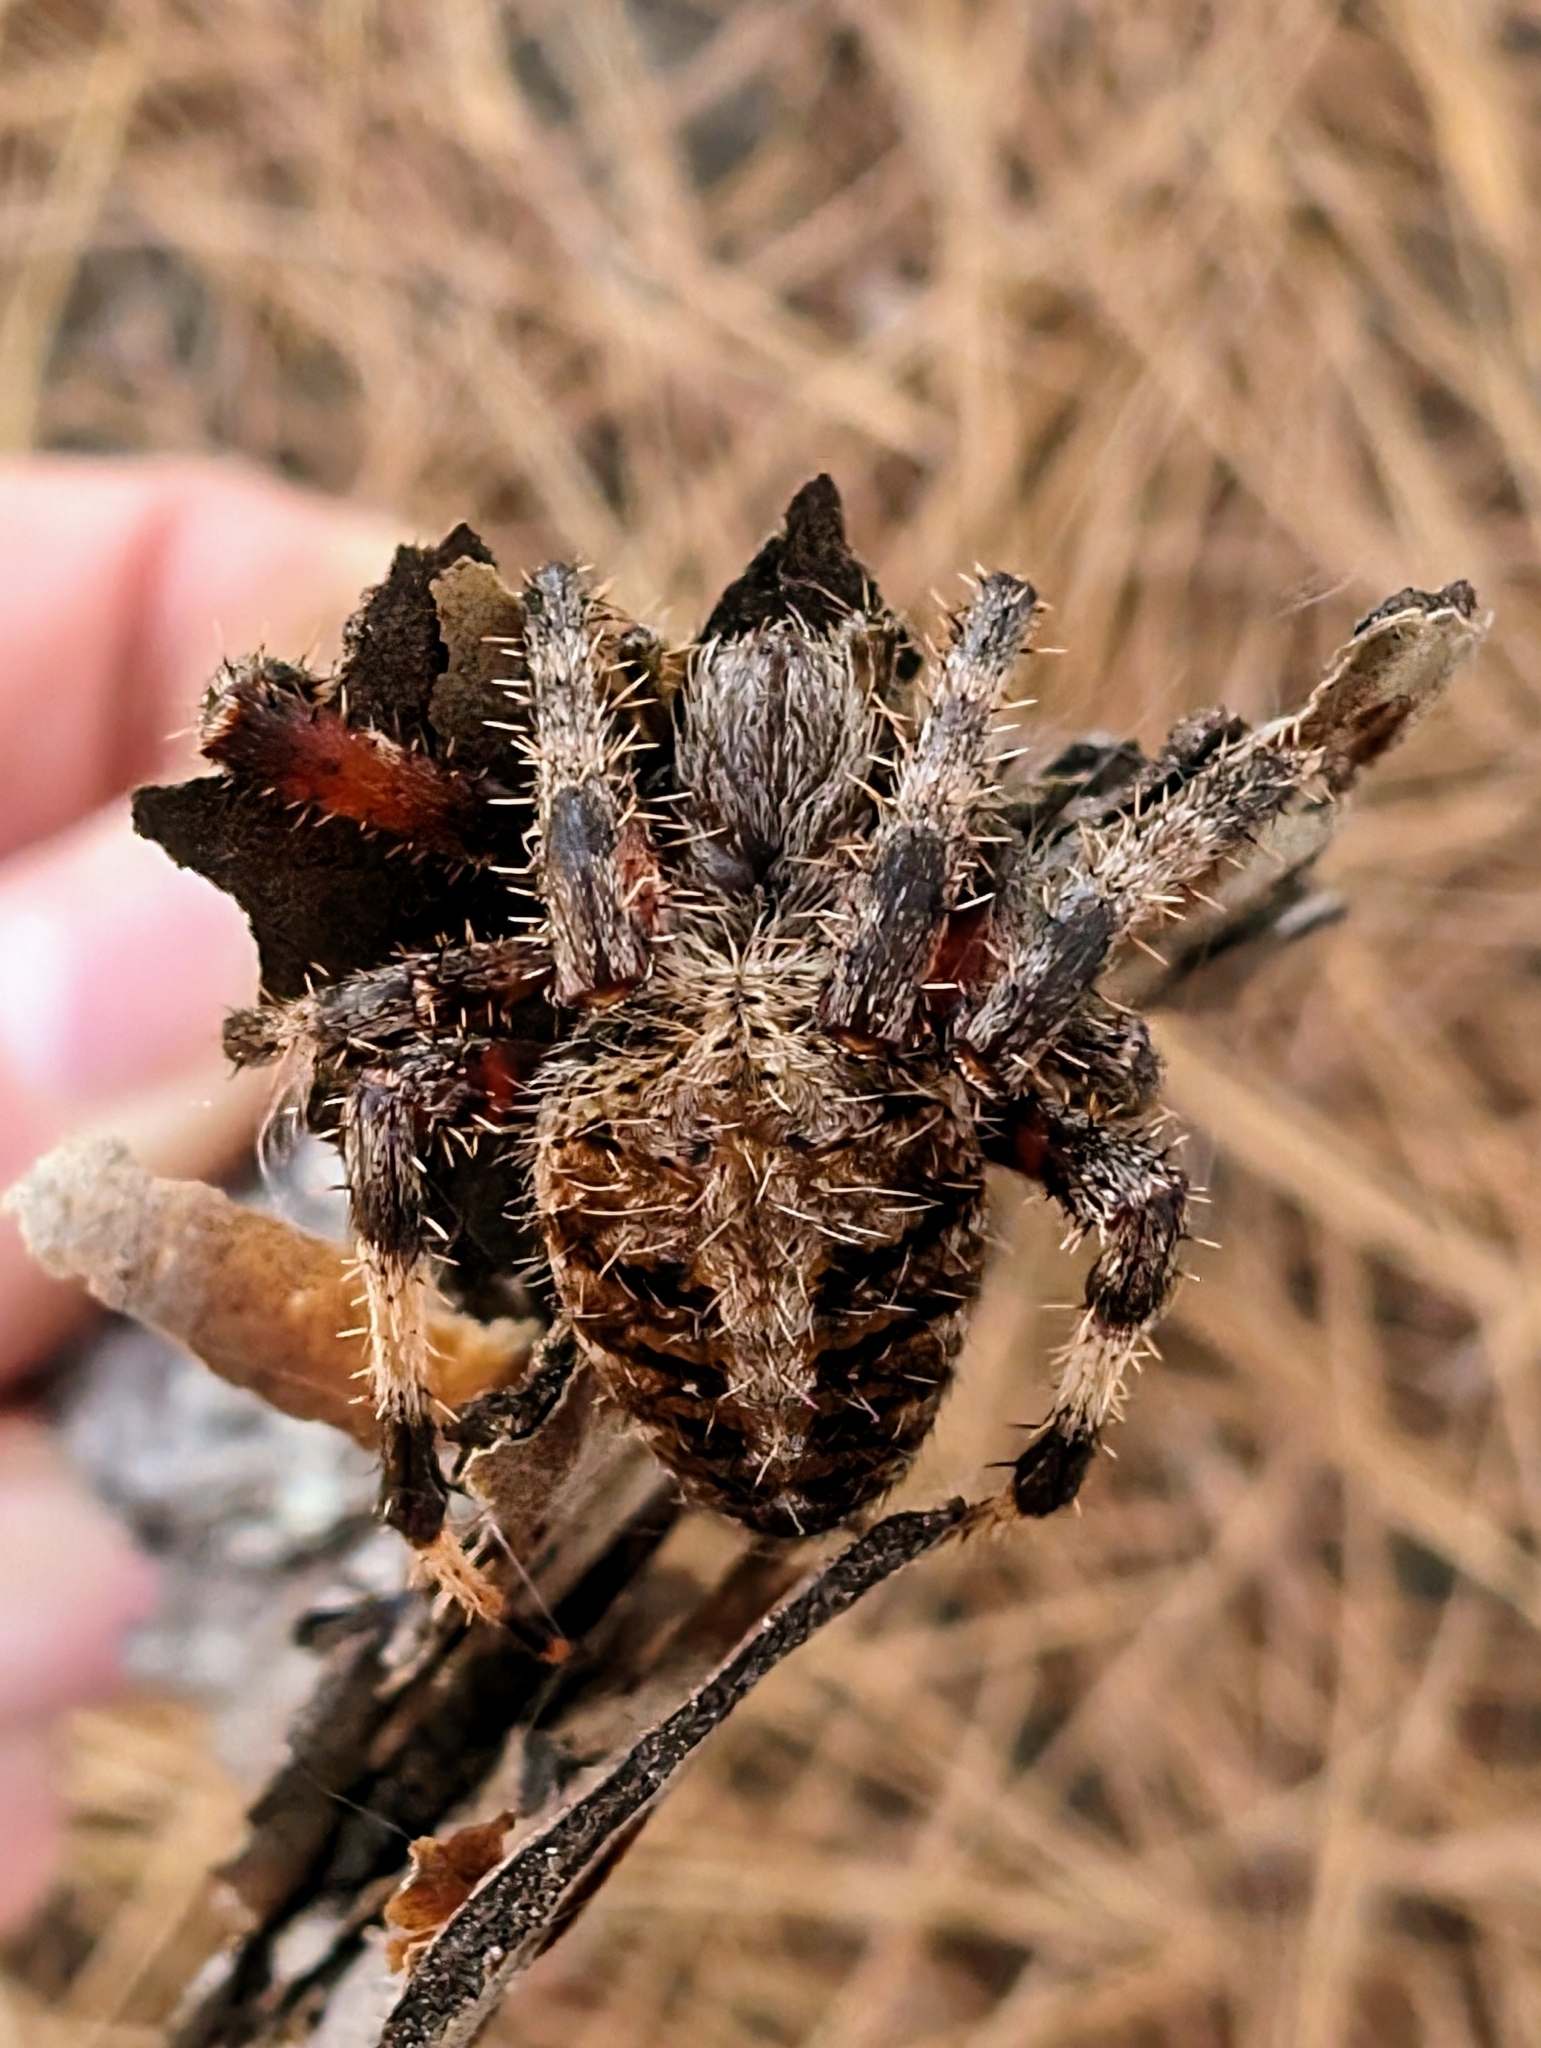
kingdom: Animalia
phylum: Arthropoda
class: Arachnida
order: Araneae
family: Araneidae
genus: Neoscona
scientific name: Neoscona crucifera
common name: Spotted orbweaver
